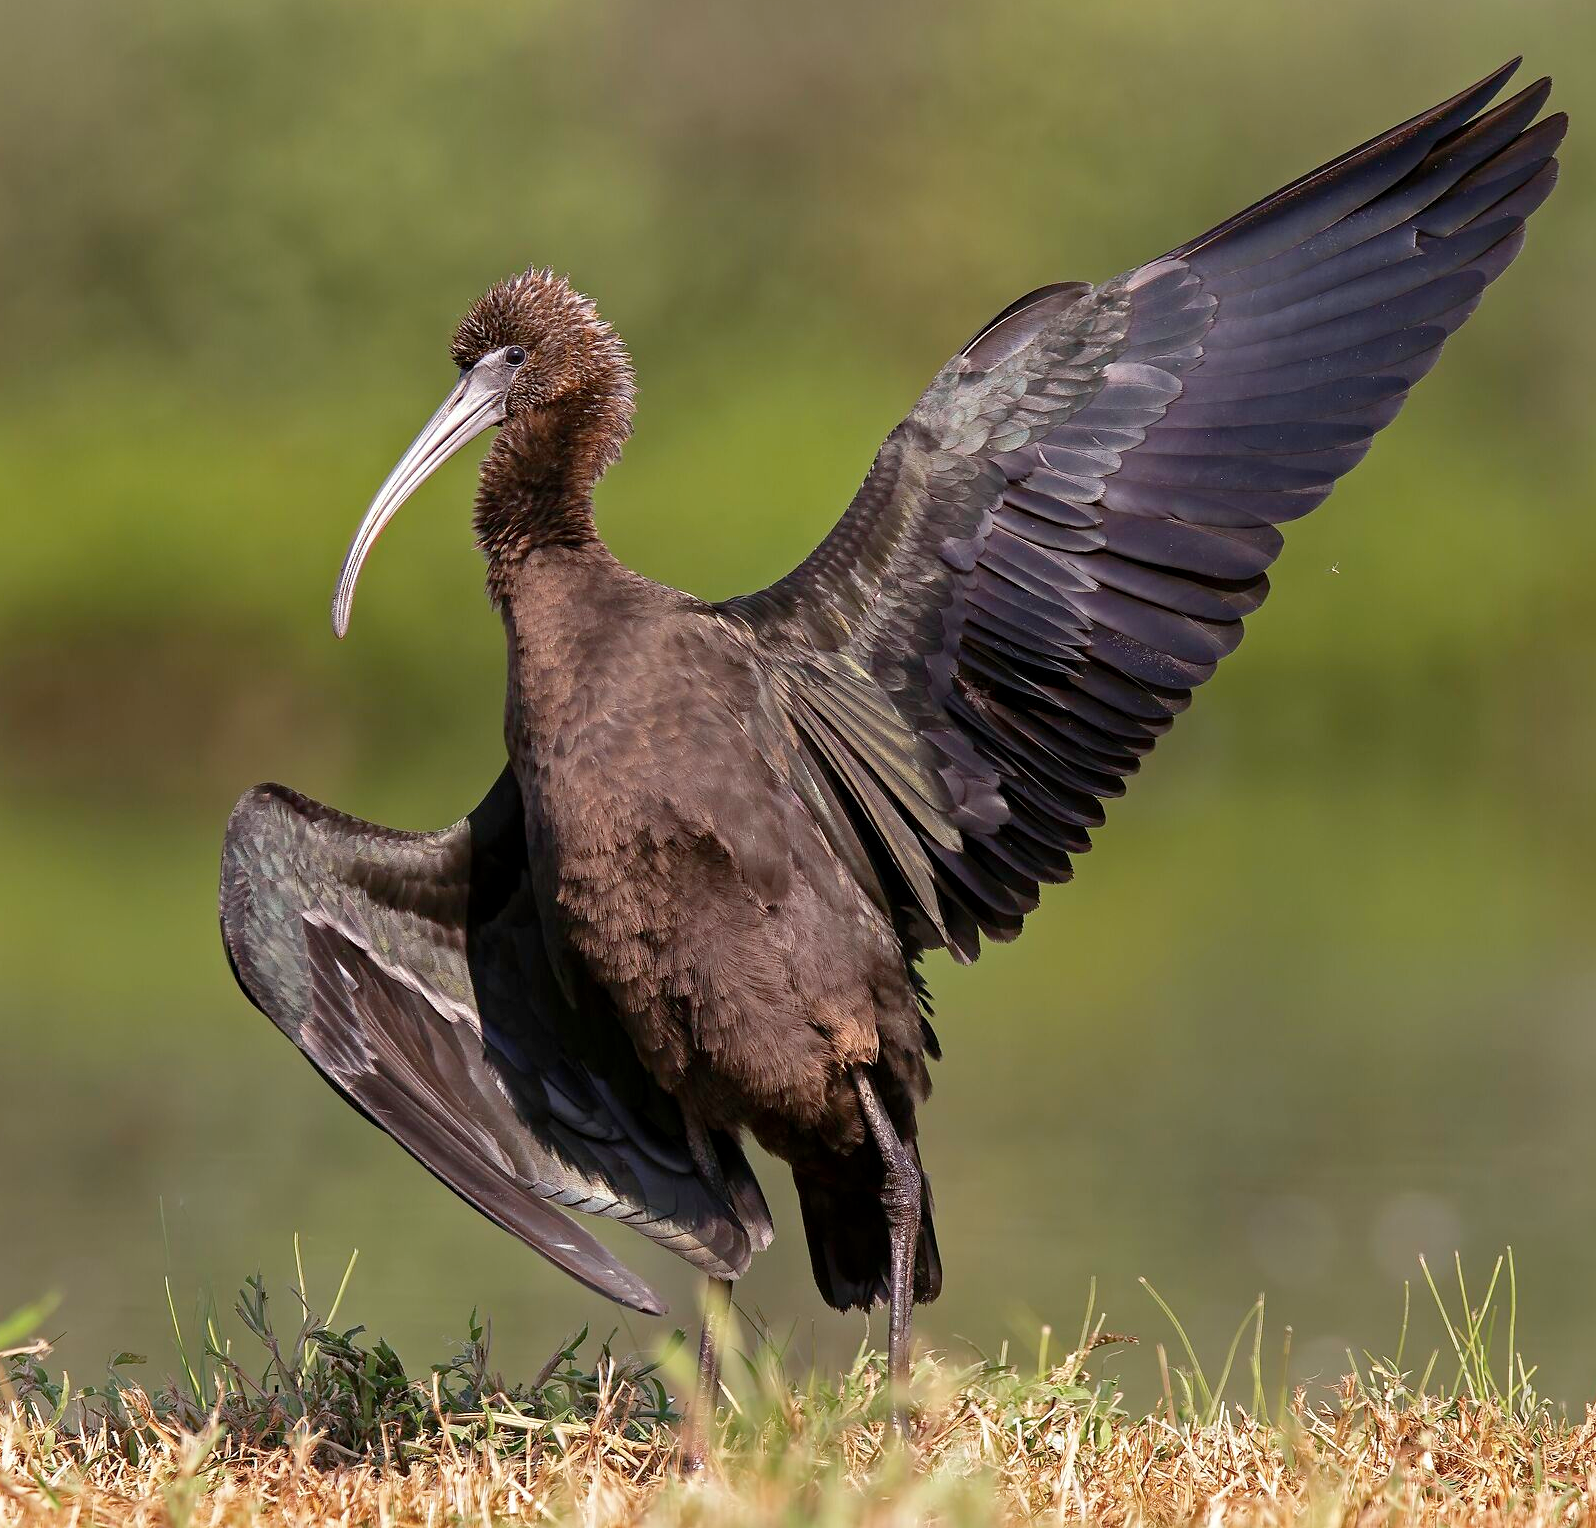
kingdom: Animalia
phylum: Chordata
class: Aves
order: Pelecaniformes
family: Threskiornithidae
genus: Plegadis
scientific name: Plegadis falcinellus
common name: Glossy ibis
